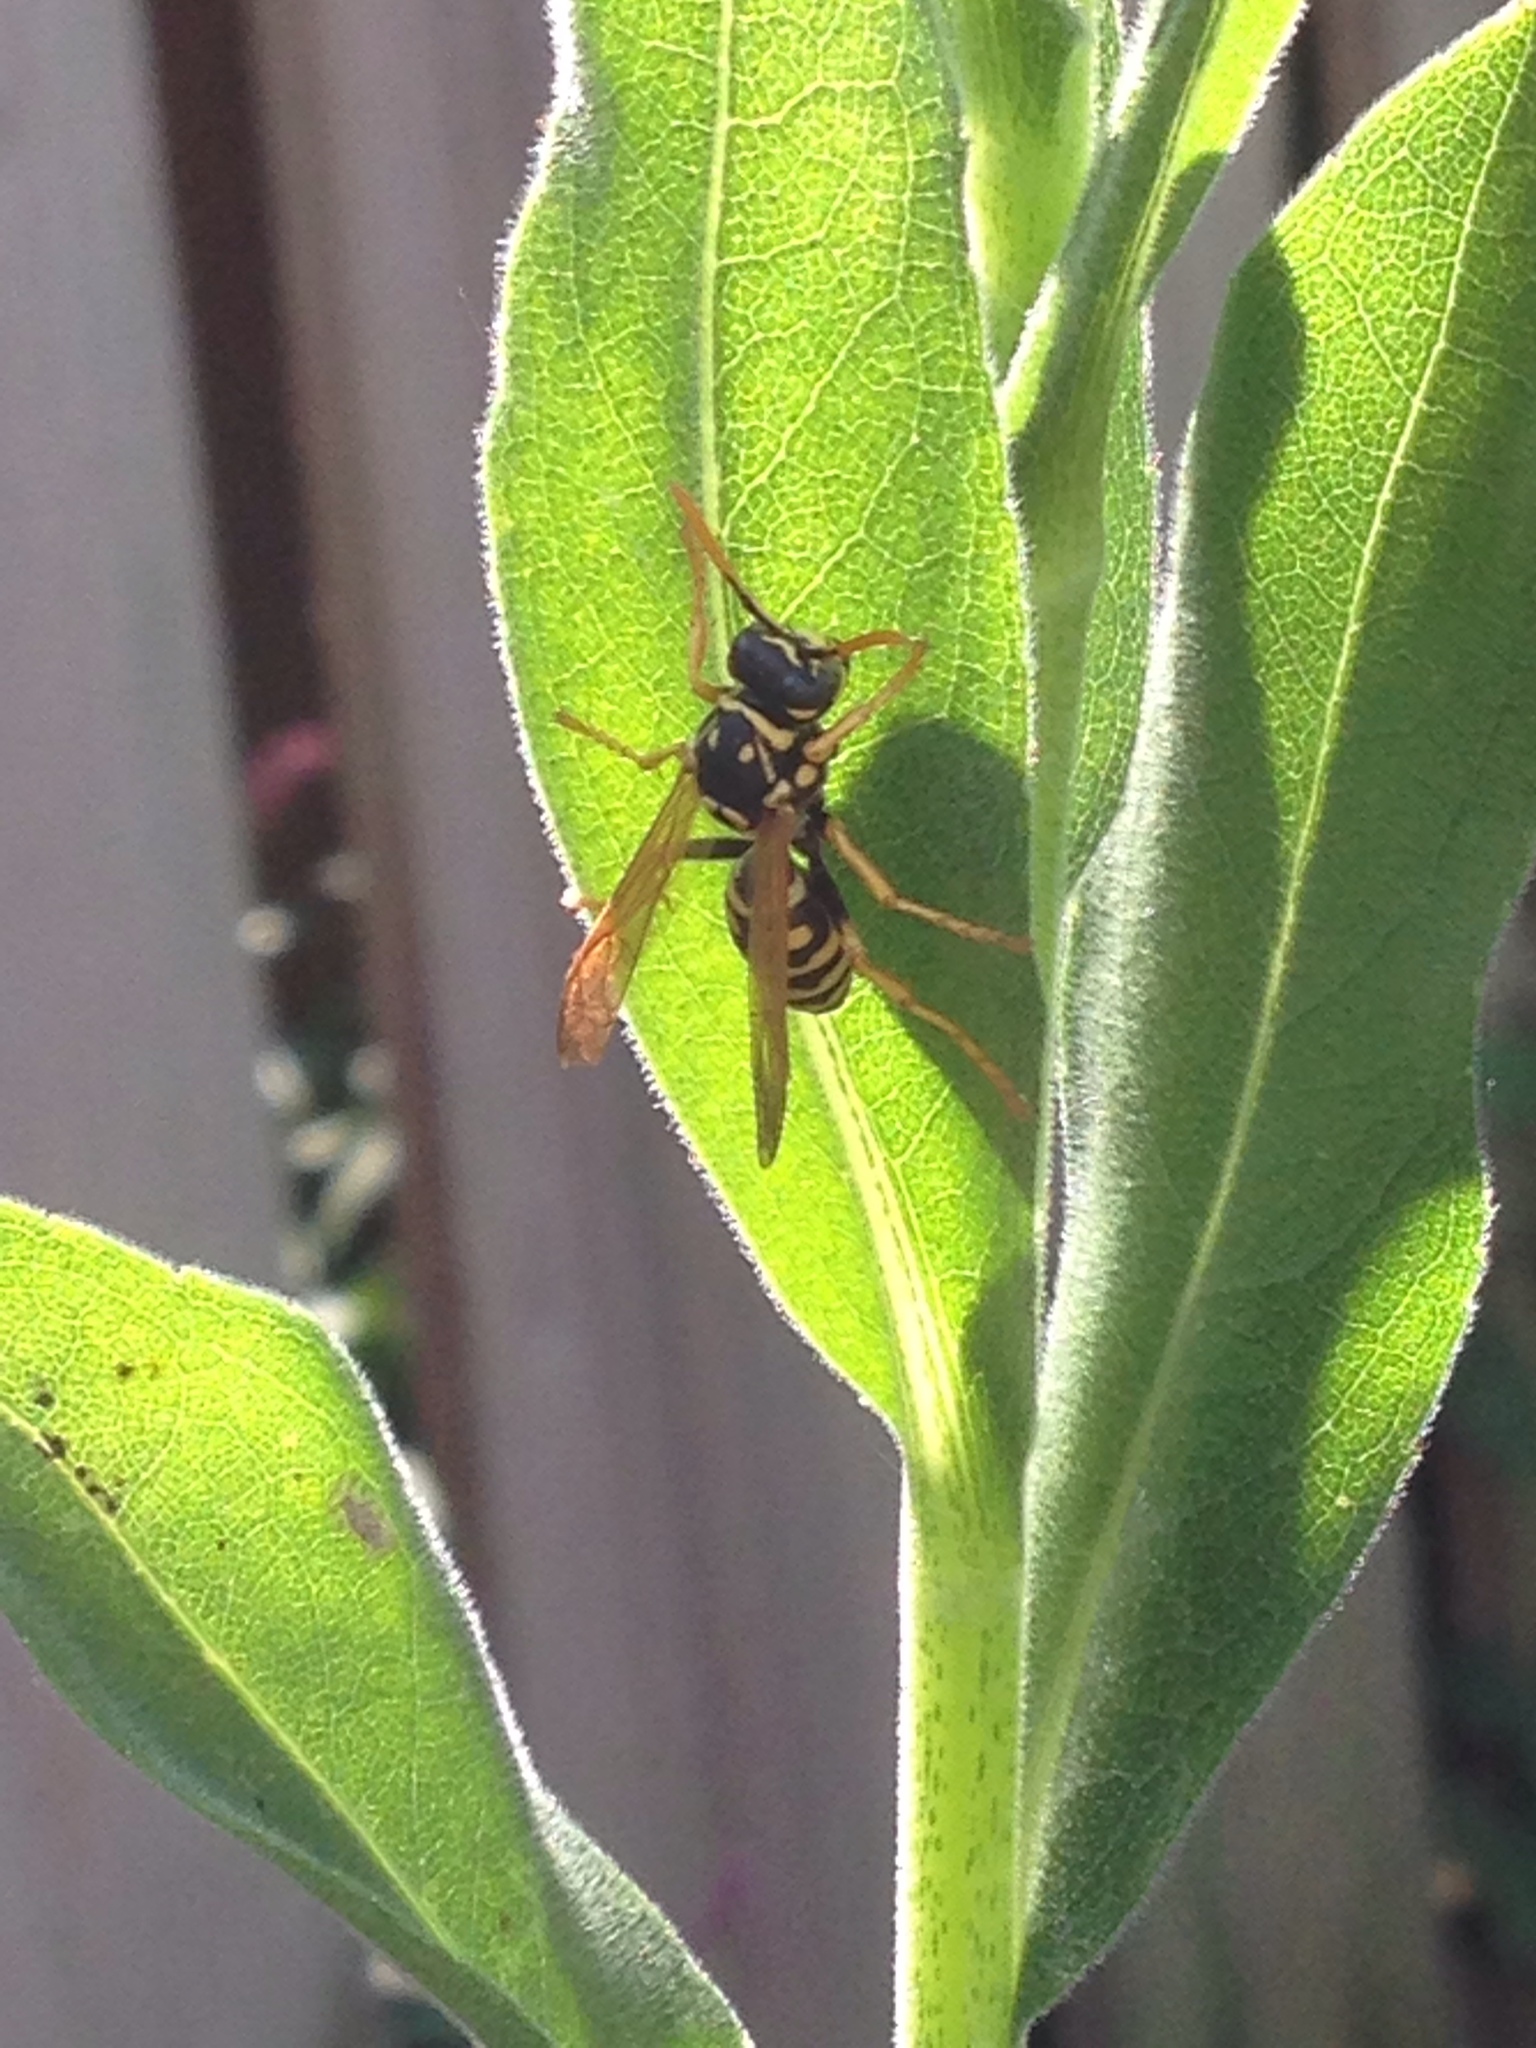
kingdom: Animalia
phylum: Arthropoda
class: Insecta
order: Hymenoptera
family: Eumenidae
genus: Polistes
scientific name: Polistes dominula
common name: Paper wasp
